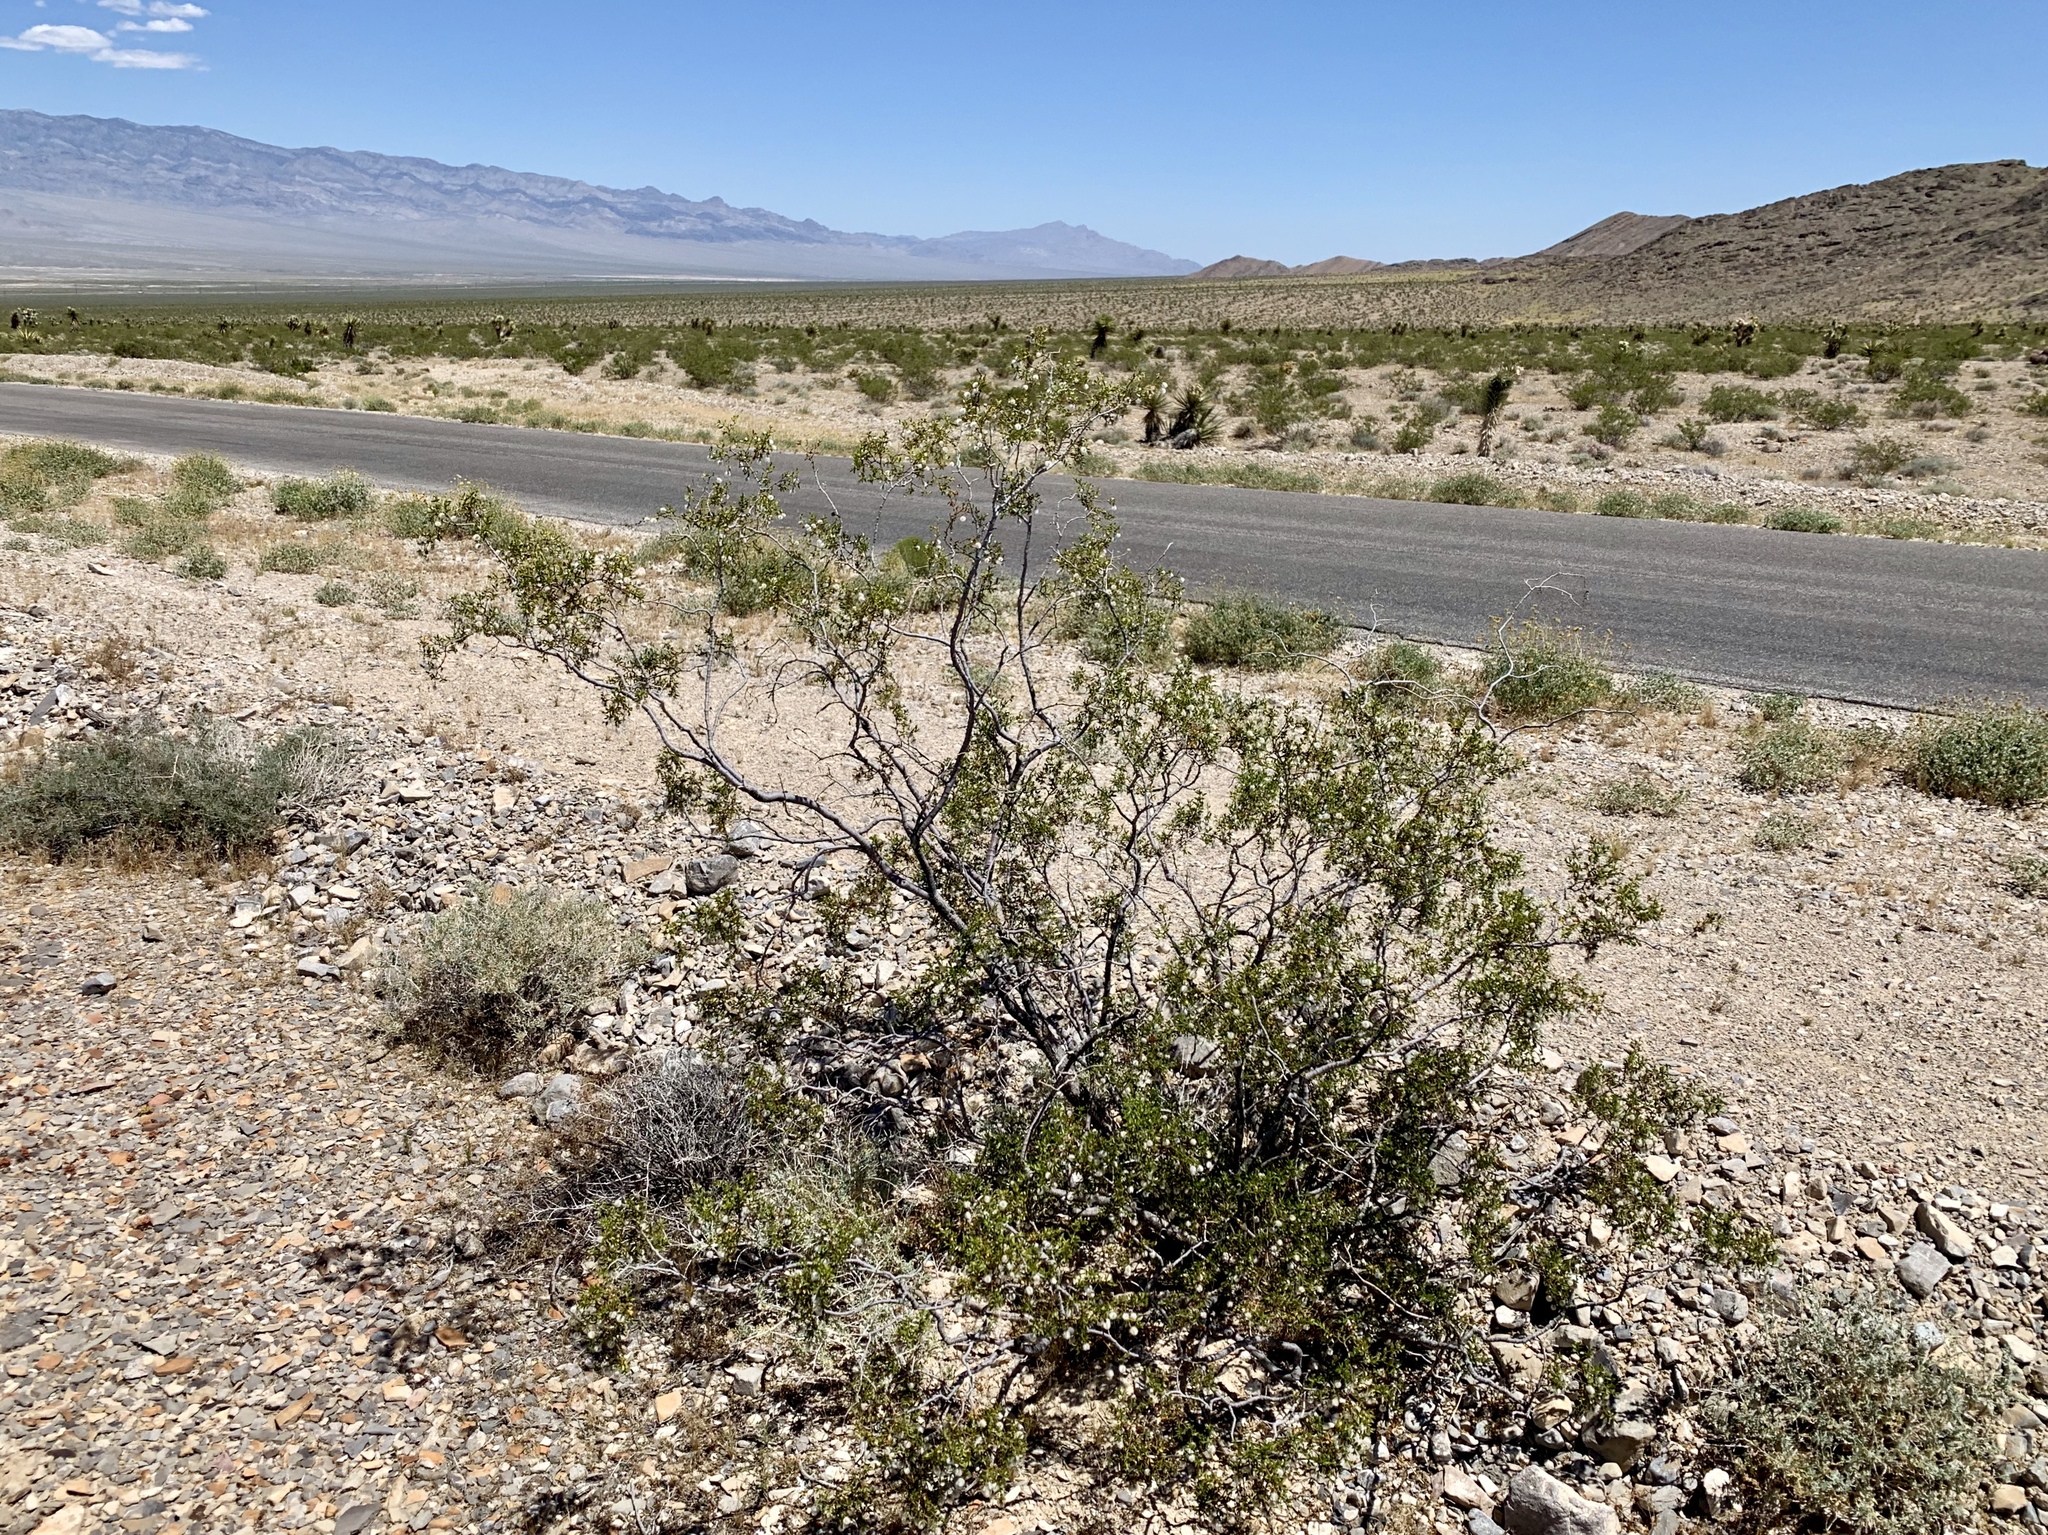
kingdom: Plantae
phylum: Tracheophyta
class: Magnoliopsida
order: Zygophyllales
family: Zygophyllaceae
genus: Larrea
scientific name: Larrea tridentata
